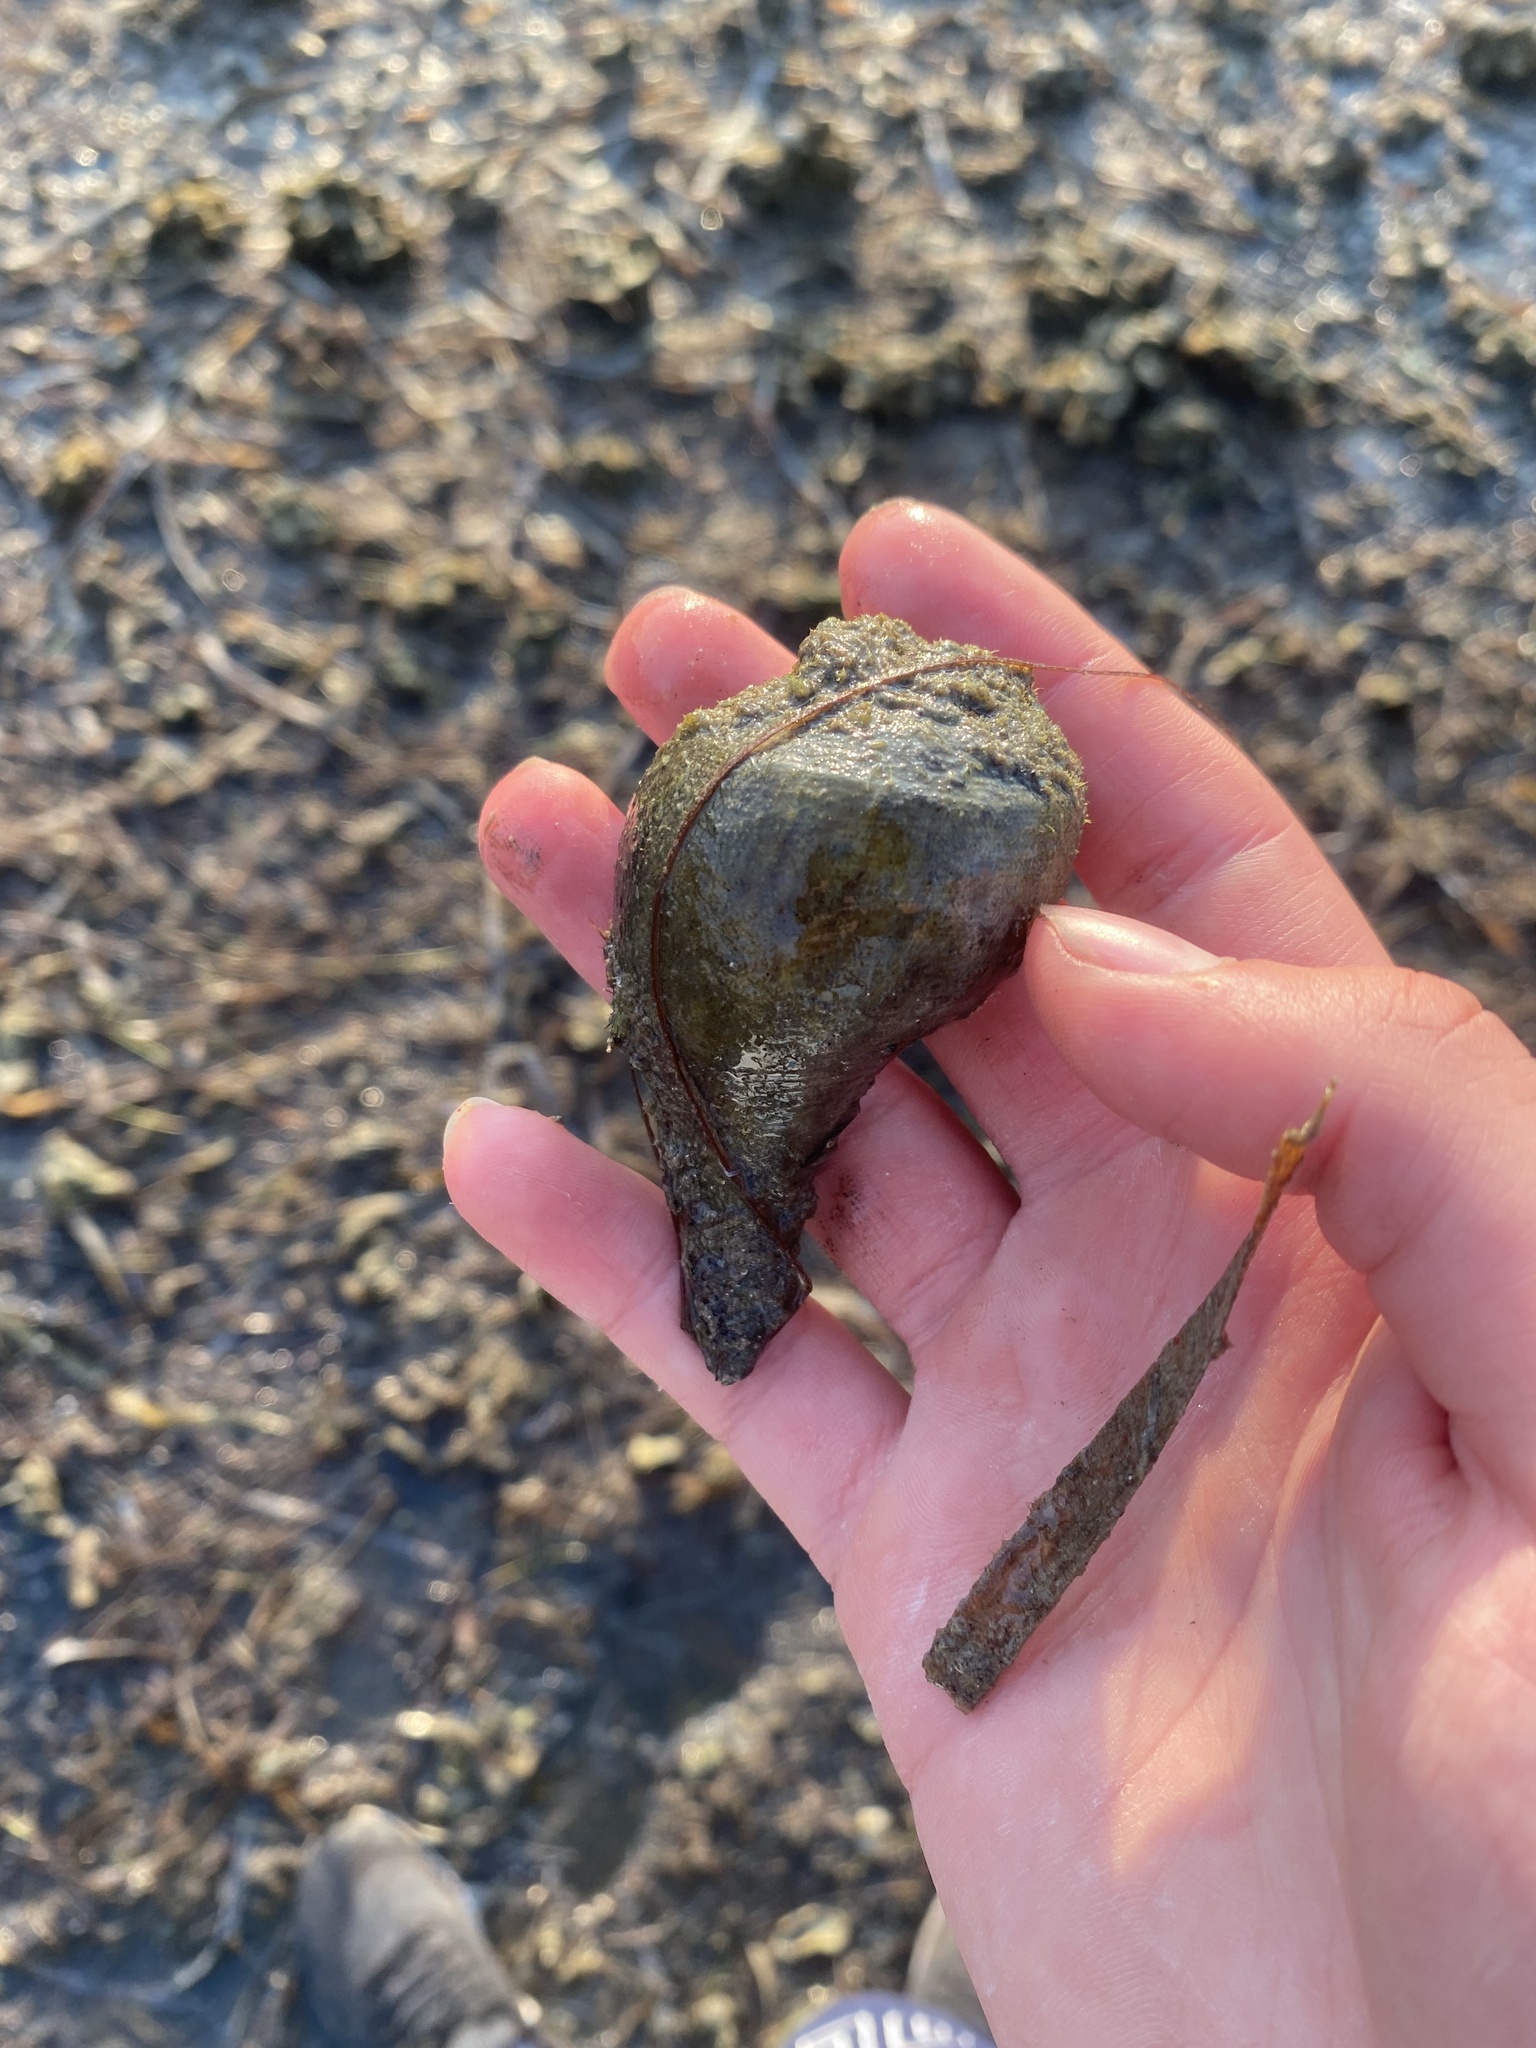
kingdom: Animalia
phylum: Mollusca
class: Gastropoda
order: Neogastropoda
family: Busyconidae
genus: Fulguropsis
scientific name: Fulguropsis pyruloides
